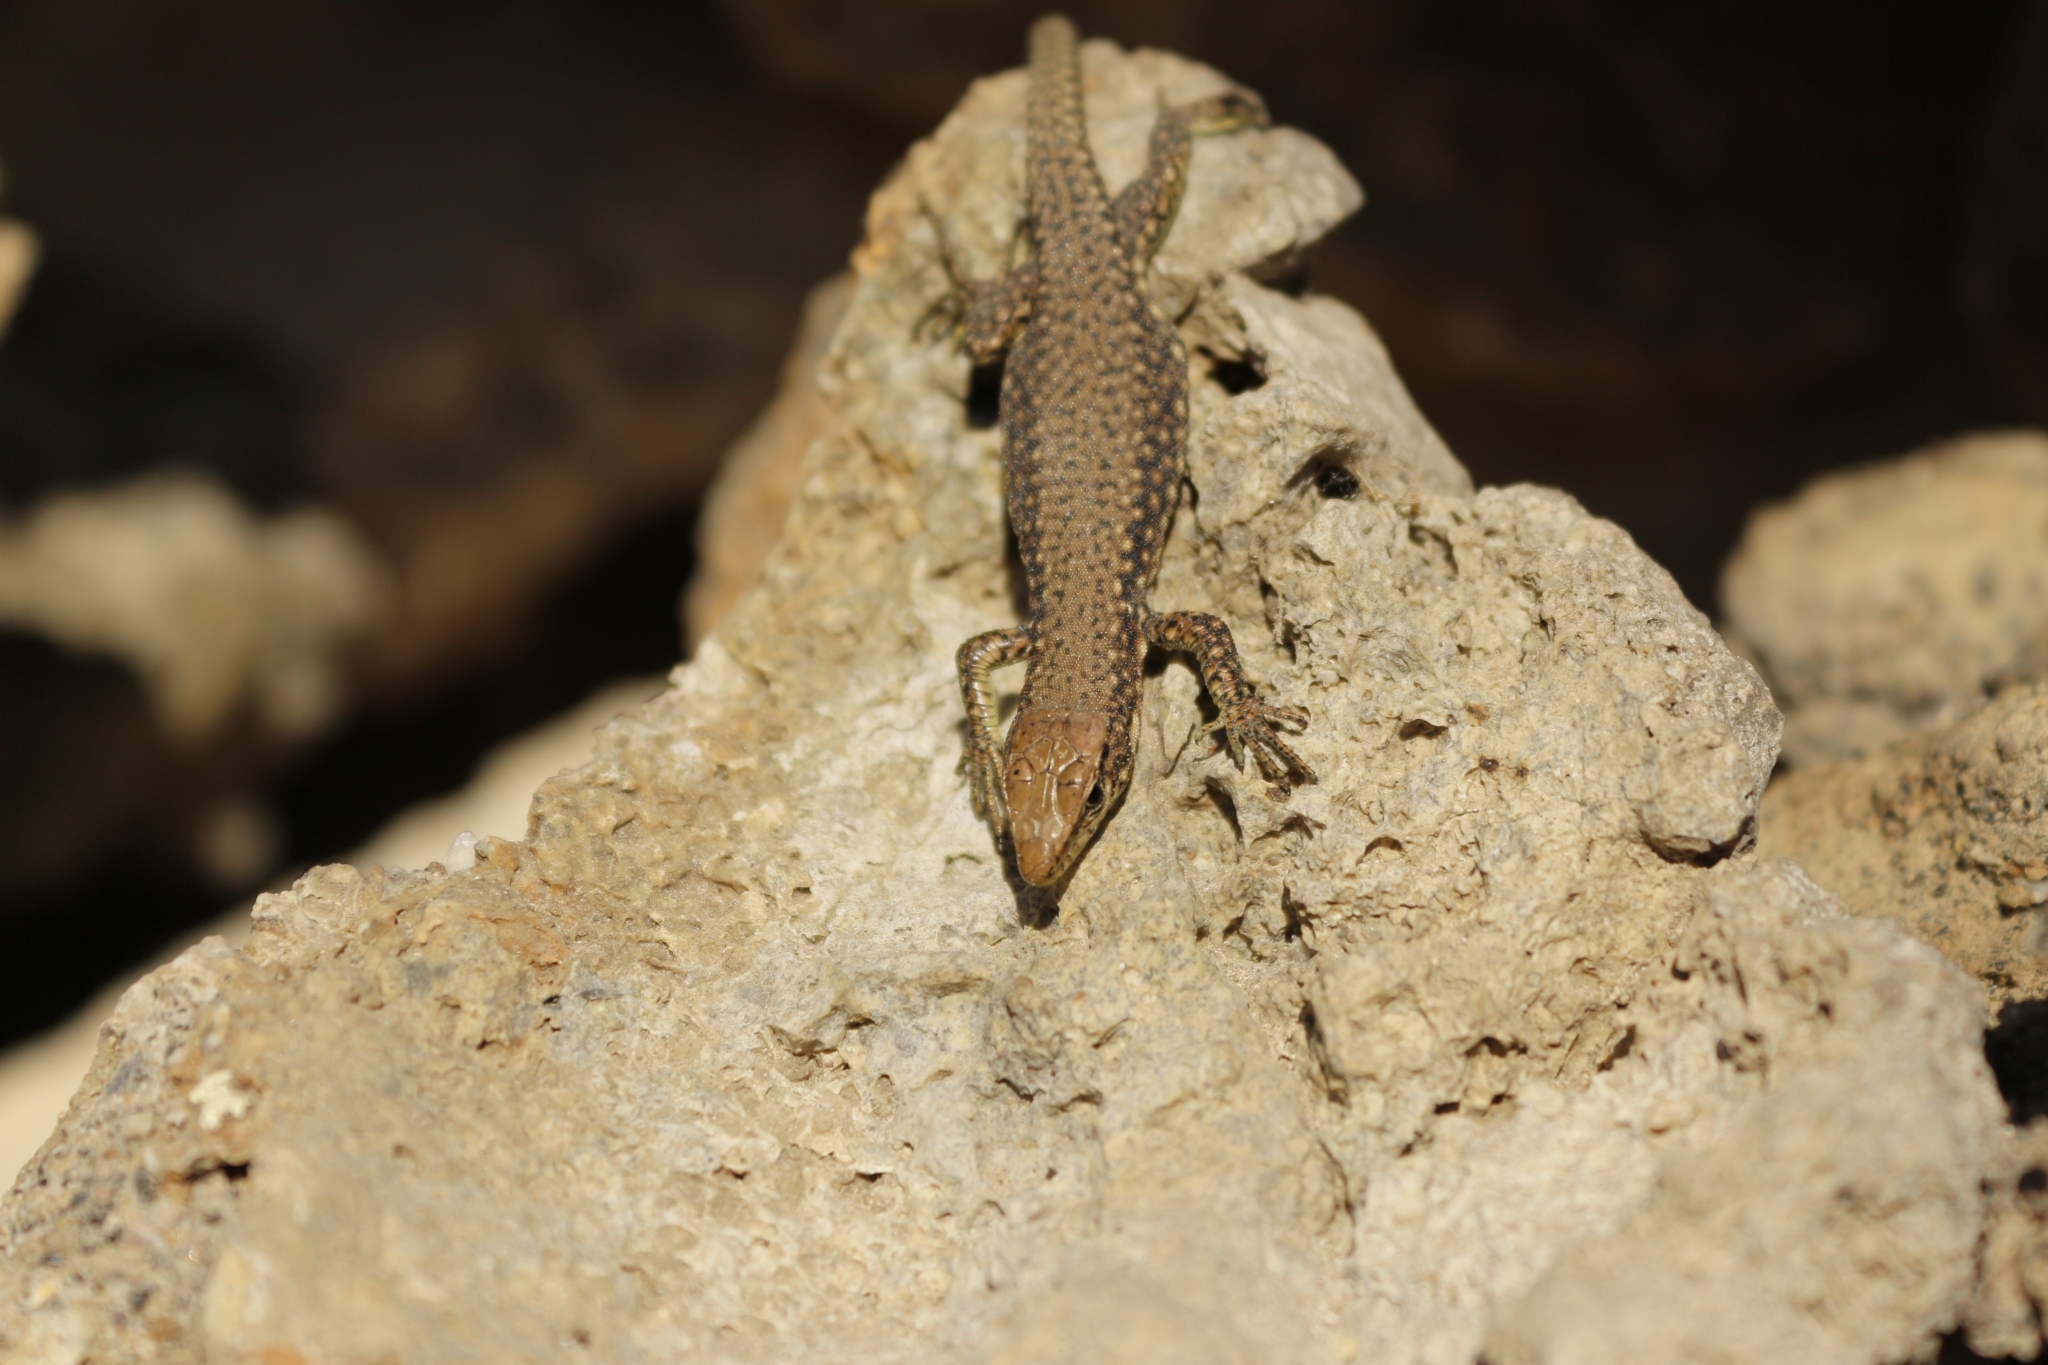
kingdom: Animalia
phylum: Chordata
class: Squamata
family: Lacertidae
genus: Darevskia
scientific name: Darevskia bithynica
